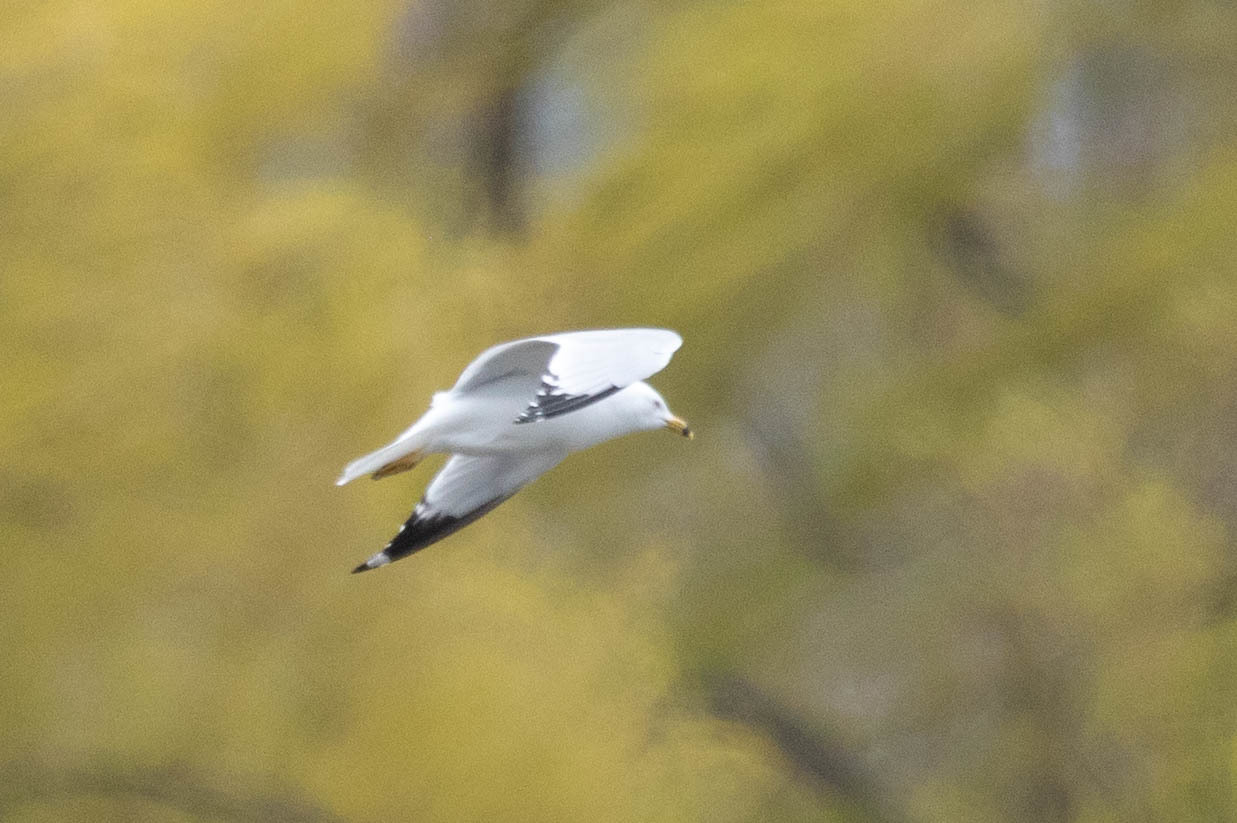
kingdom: Animalia
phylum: Chordata
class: Aves
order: Charadriiformes
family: Laridae
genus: Larus
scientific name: Larus delawarensis
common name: Ring-billed gull
